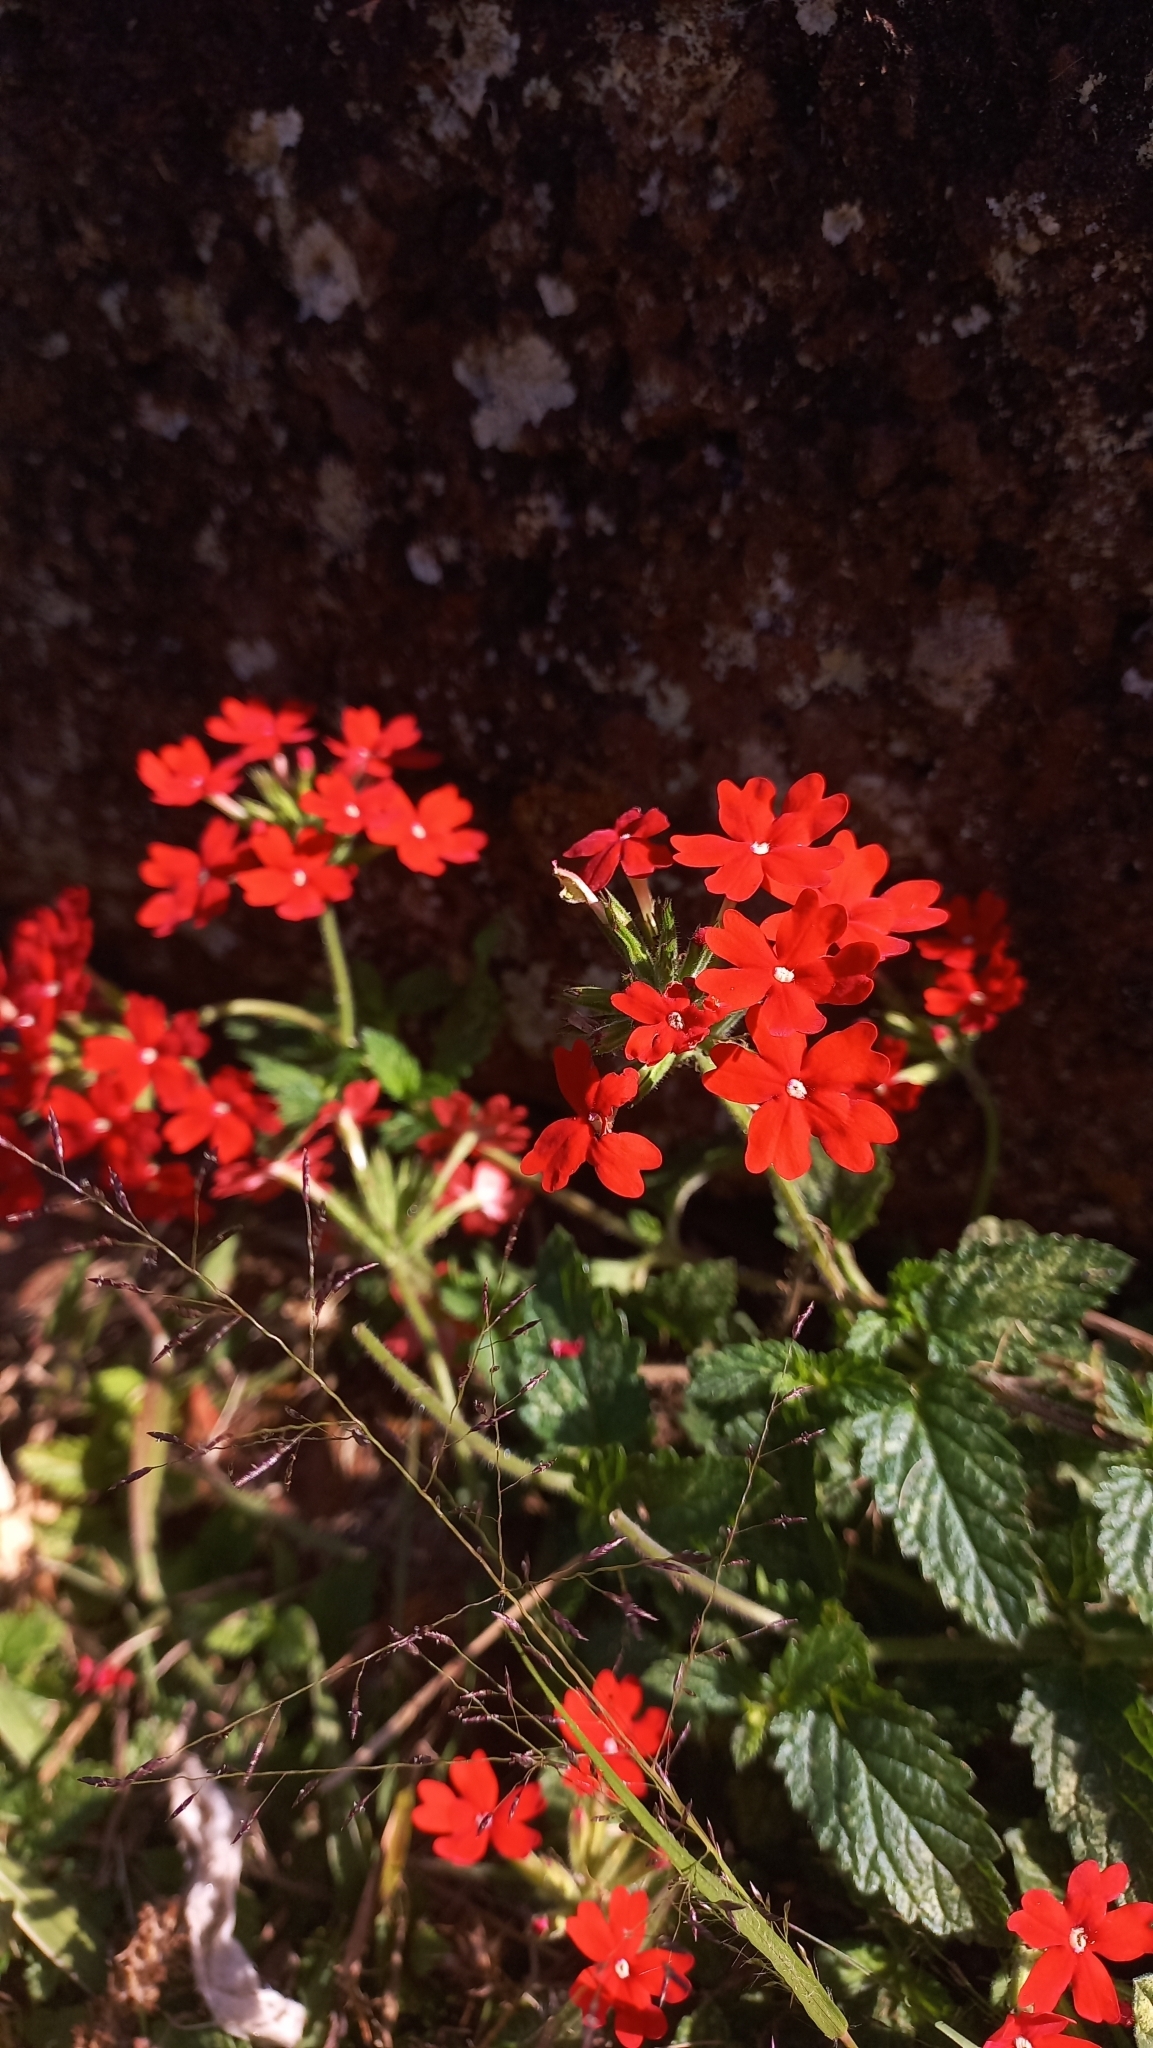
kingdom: Plantae
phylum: Tracheophyta
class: Magnoliopsida
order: Lamiales
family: Verbenaceae
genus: Verbena
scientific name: Verbena tweedieana
